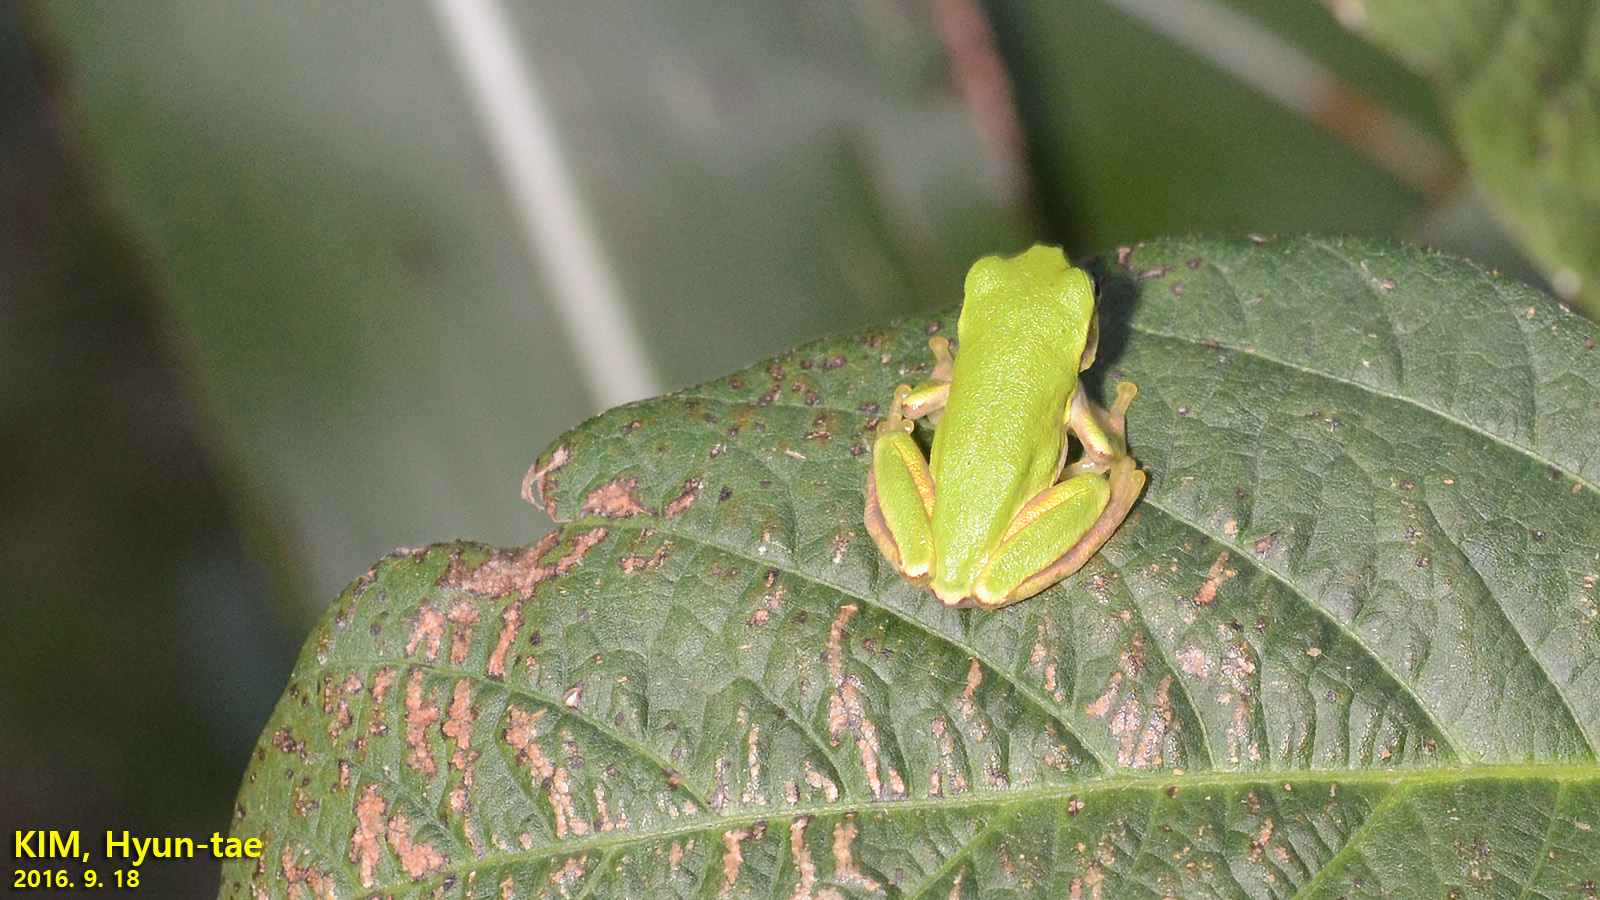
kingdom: Animalia
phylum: Chordata
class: Amphibia
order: Anura
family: Hylidae
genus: Dryophytes
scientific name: Dryophytes japonicus
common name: Japanese treefrog
